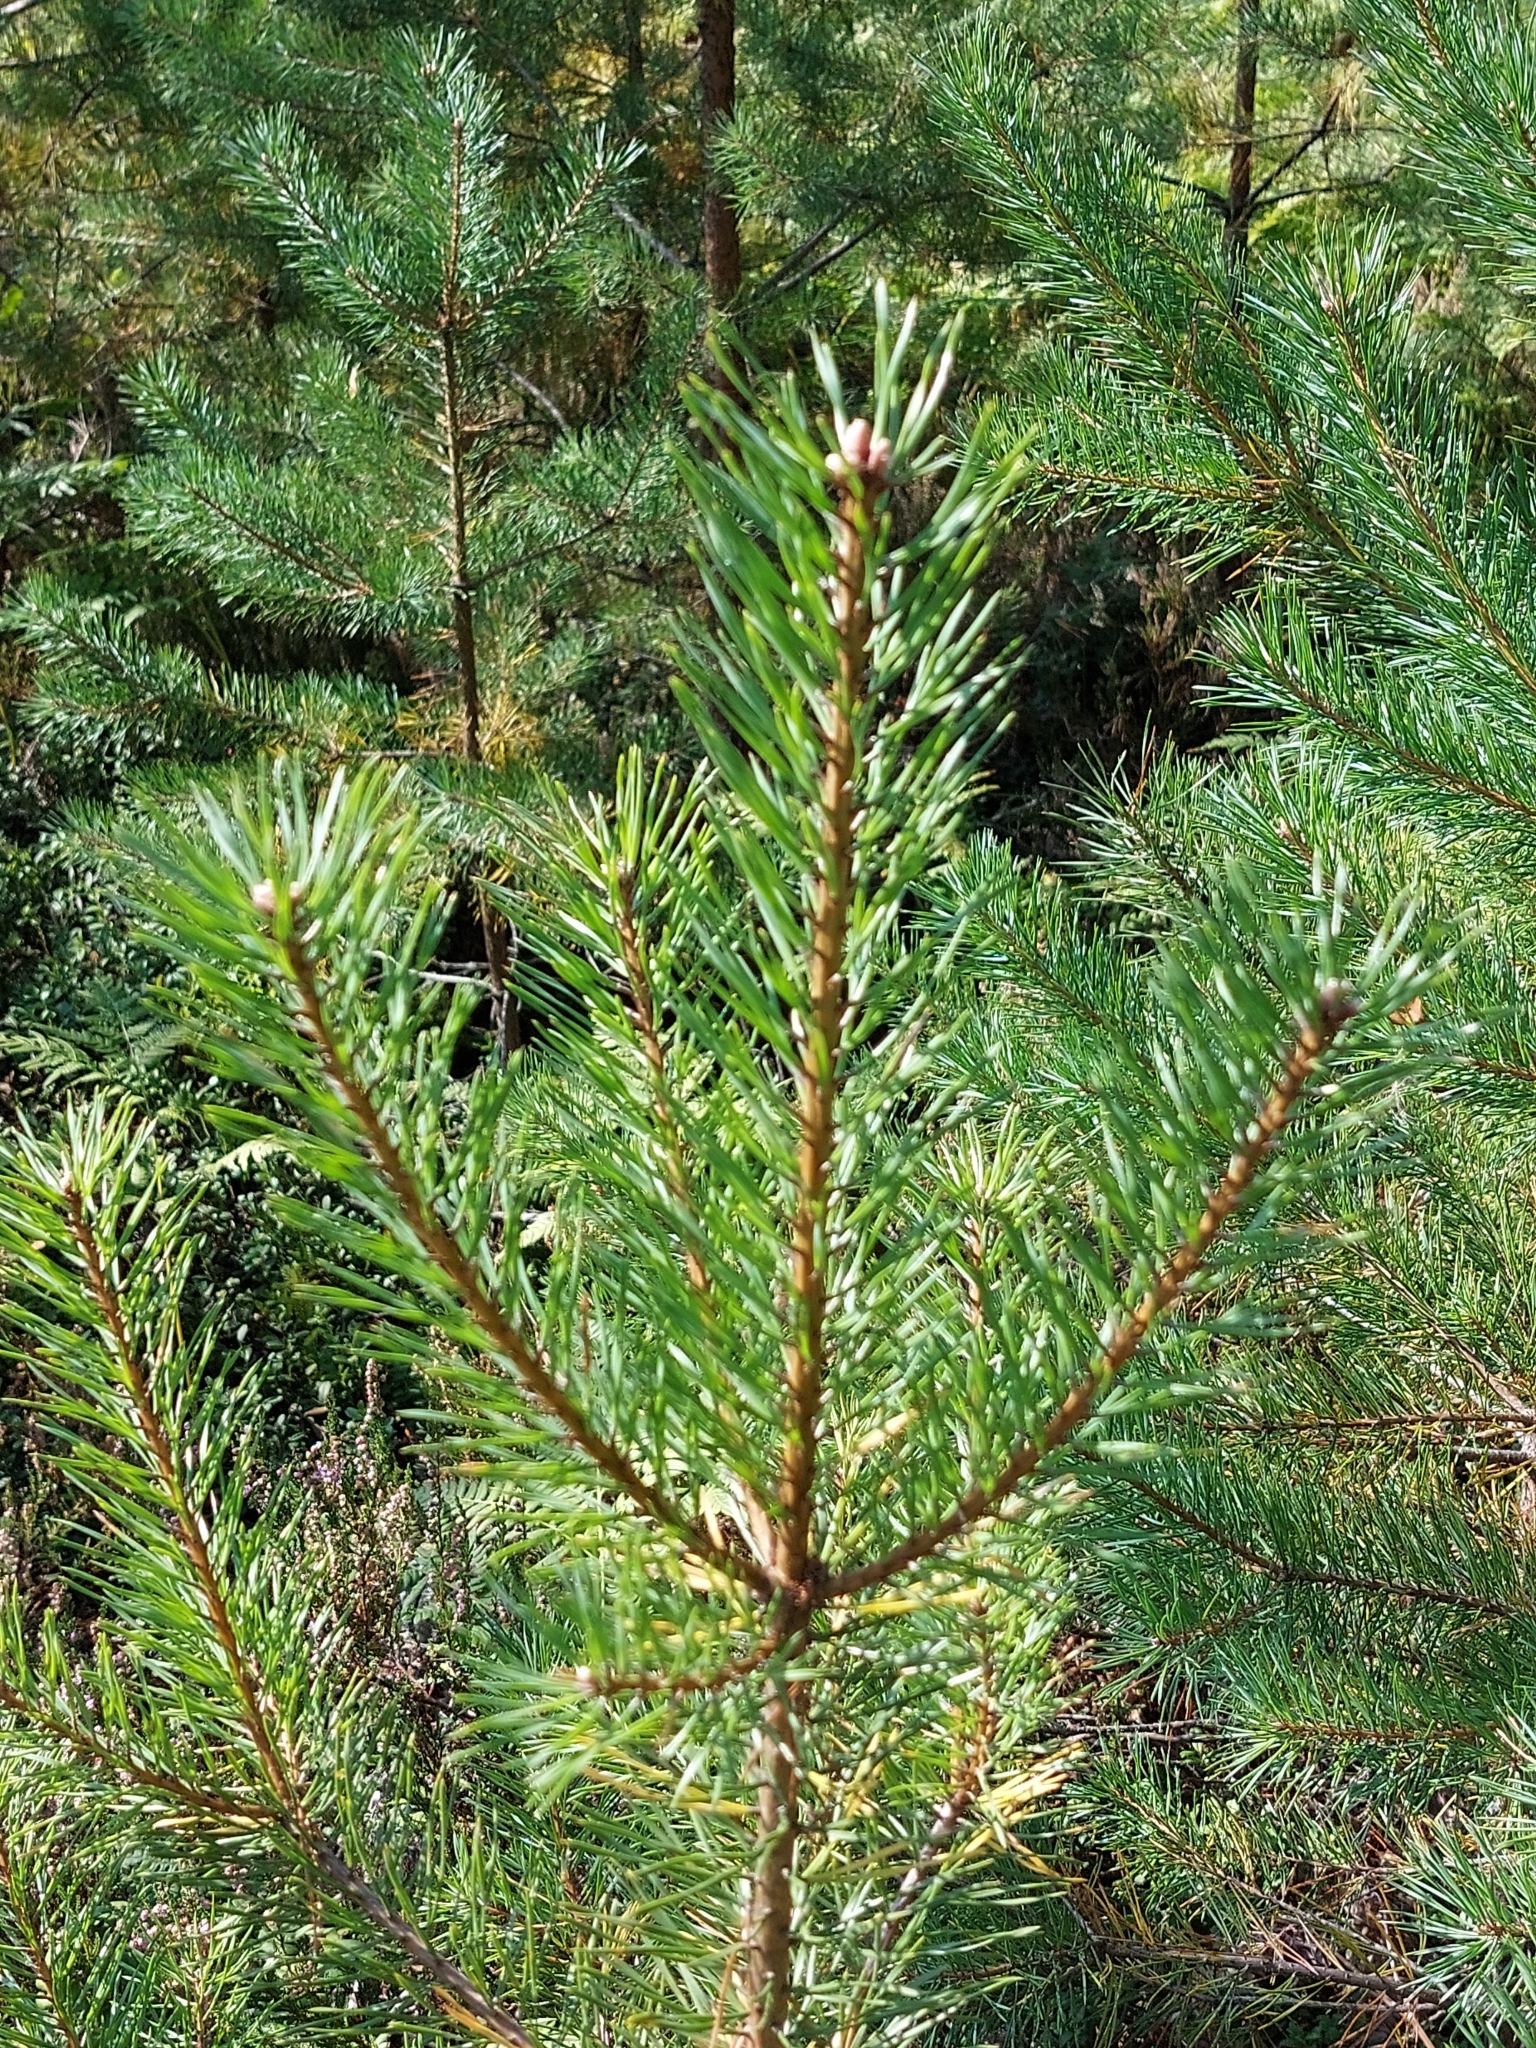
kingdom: Plantae
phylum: Tracheophyta
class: Pinopsida
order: Pinales
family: Pinaceae
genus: Pinus
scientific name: Pinus sylvestris
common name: Scots pine
